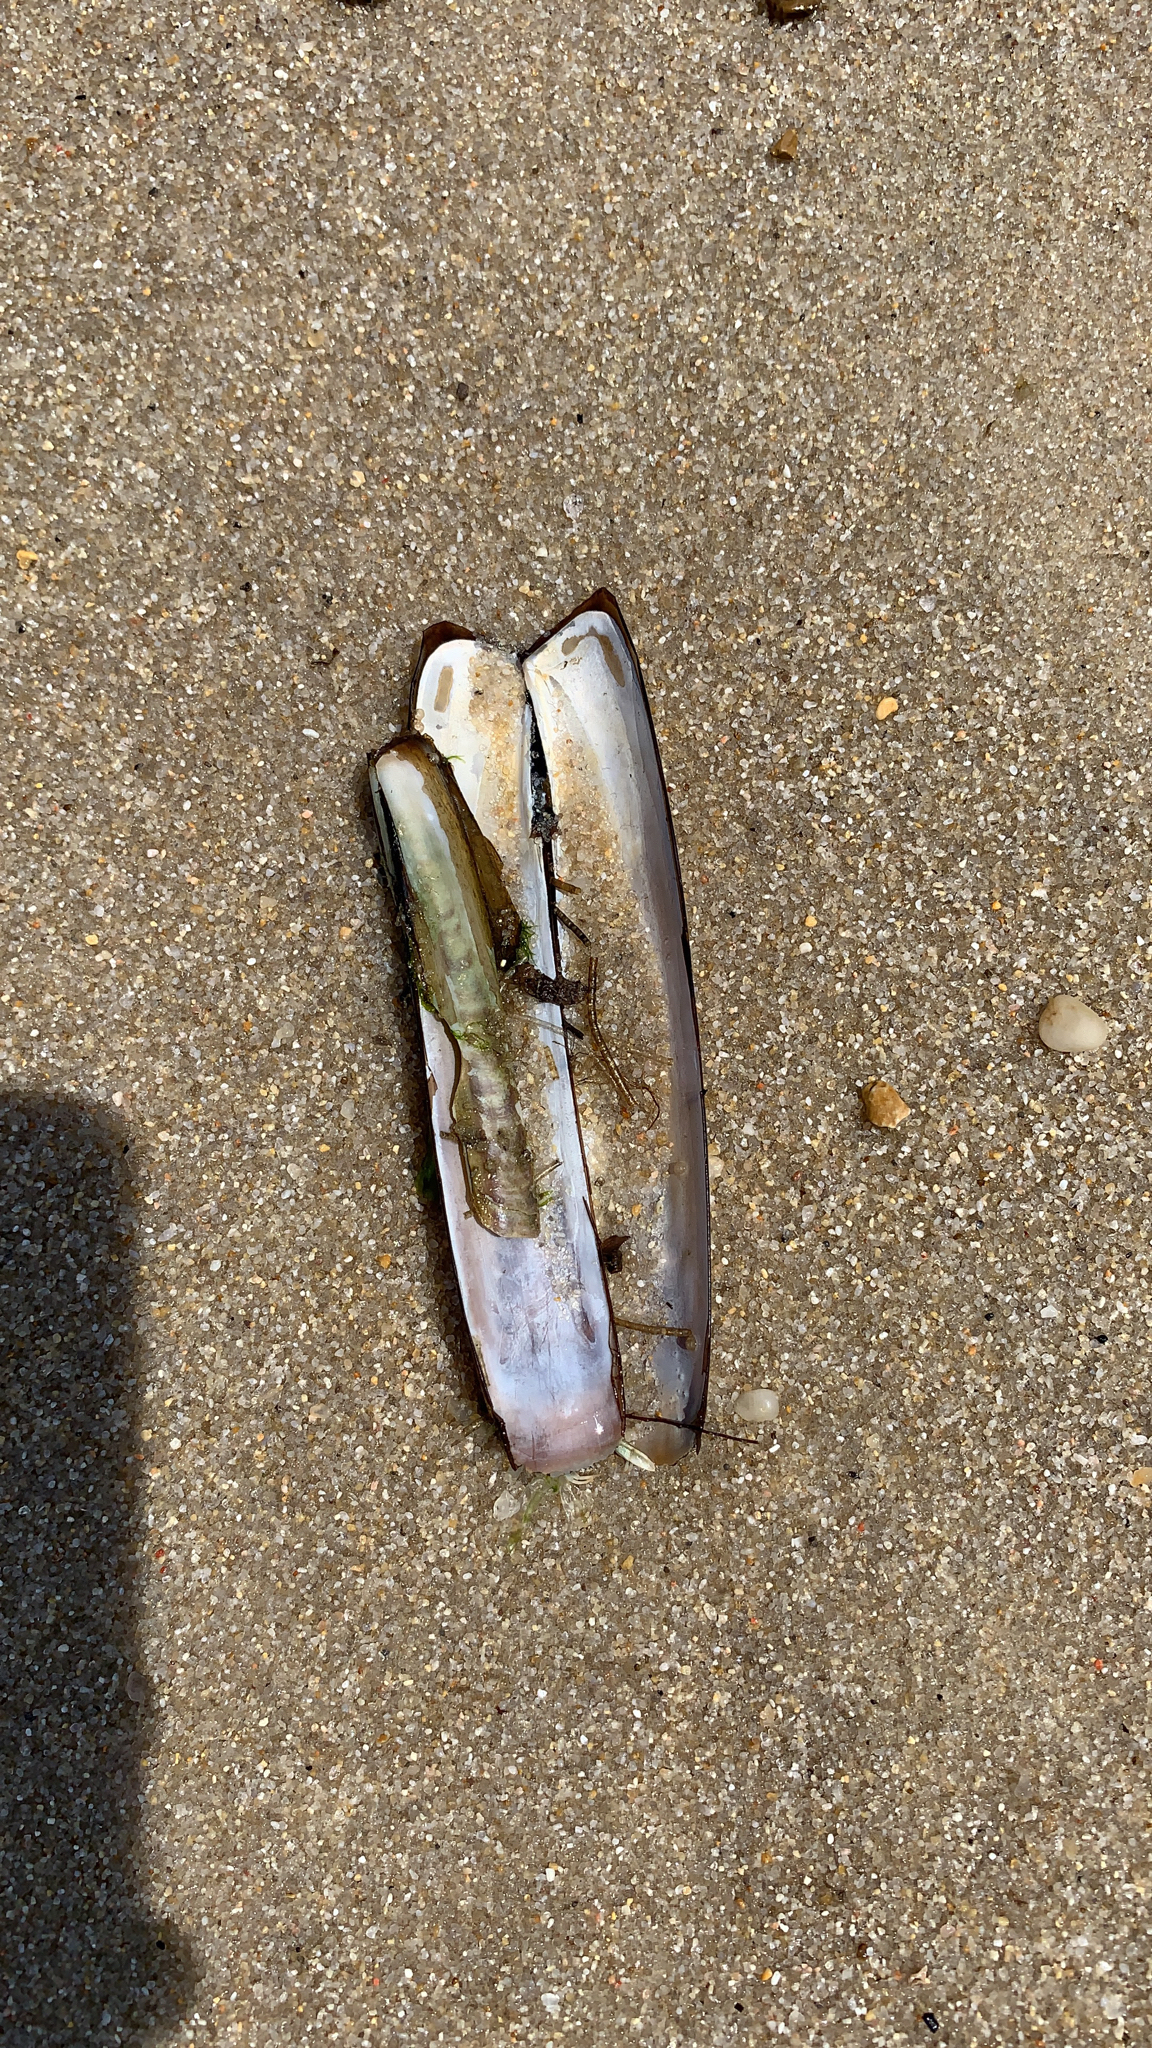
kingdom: Animalia
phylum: Mollusca
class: Bivalvia
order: Adapedonta
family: Pharidae
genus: Ensis
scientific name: Ensis leei
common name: American jack knife clam
